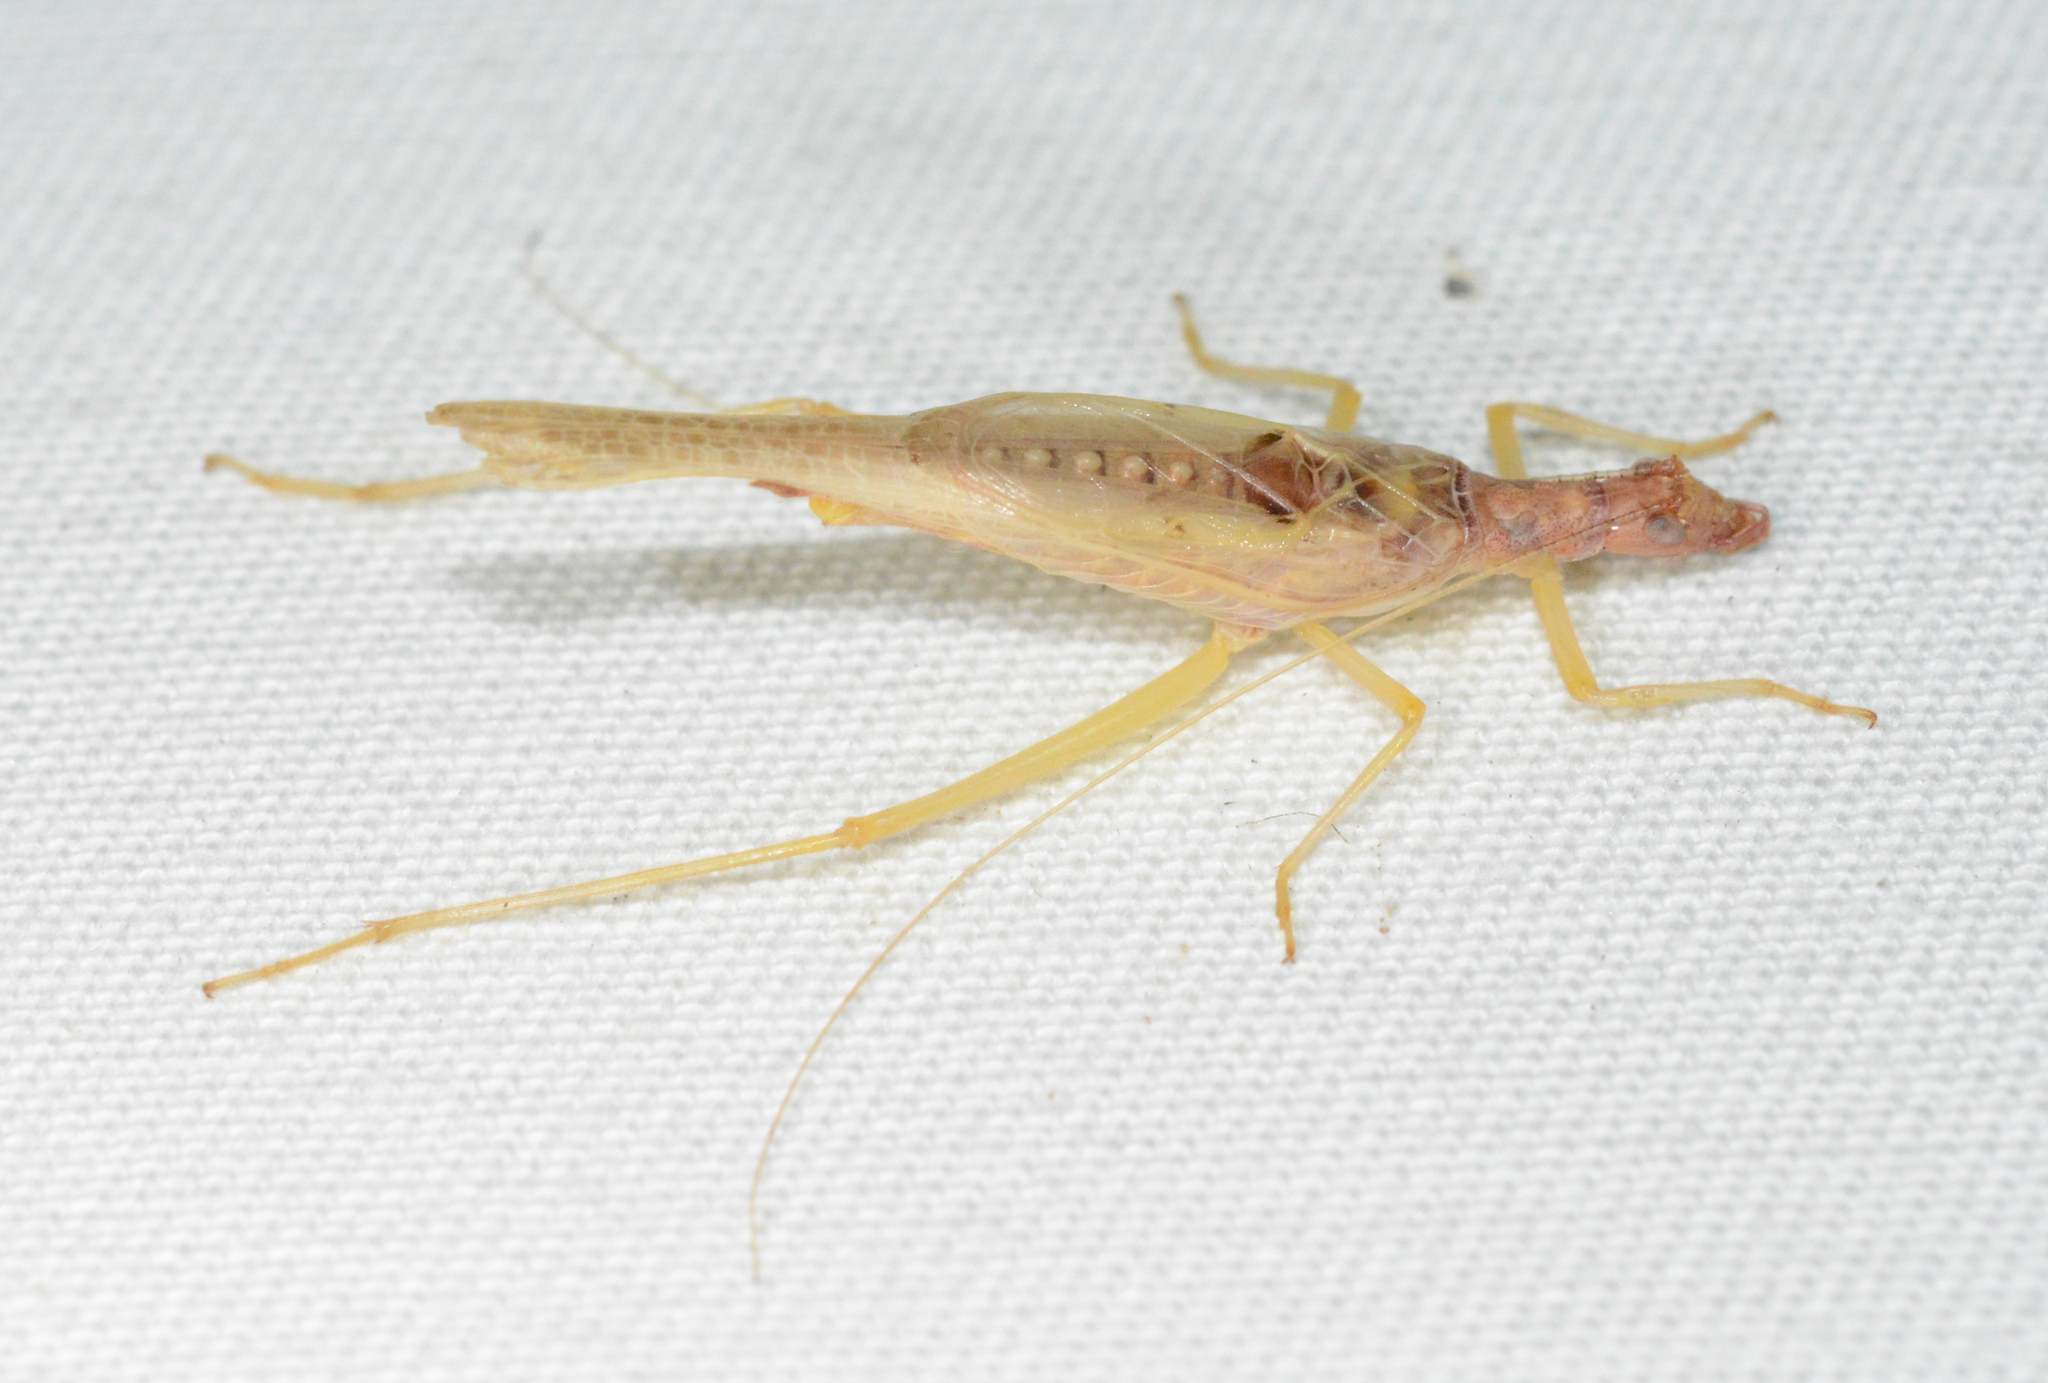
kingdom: Animalia
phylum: Arthropoda
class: Insecta
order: Orthoptera
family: Gryllidae
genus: Neoxabea
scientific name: Neoxabea bipunctata
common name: Two-spotted tree cricket
